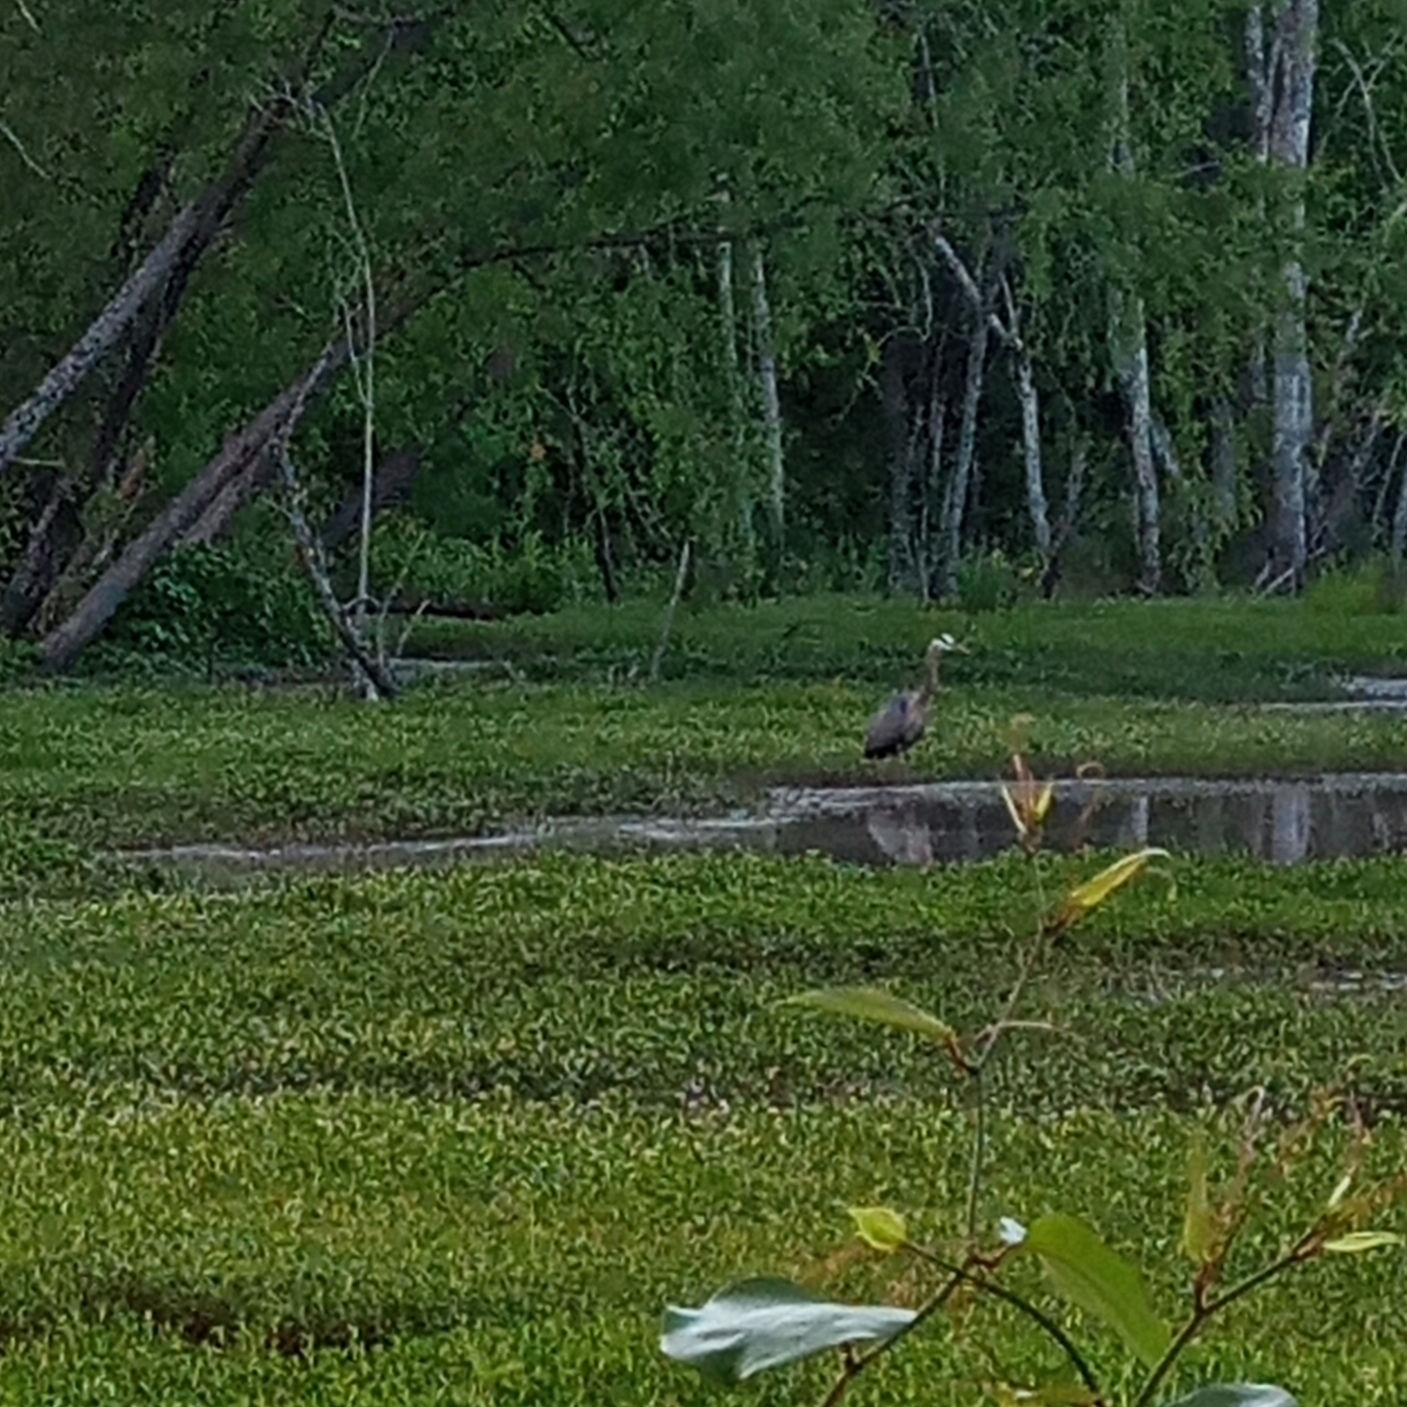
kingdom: Animalia
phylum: Chordata
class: Aves
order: Pelecaniformes
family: Ardeidae
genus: Ardea
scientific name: Ardea herodias
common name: Great blue heron
